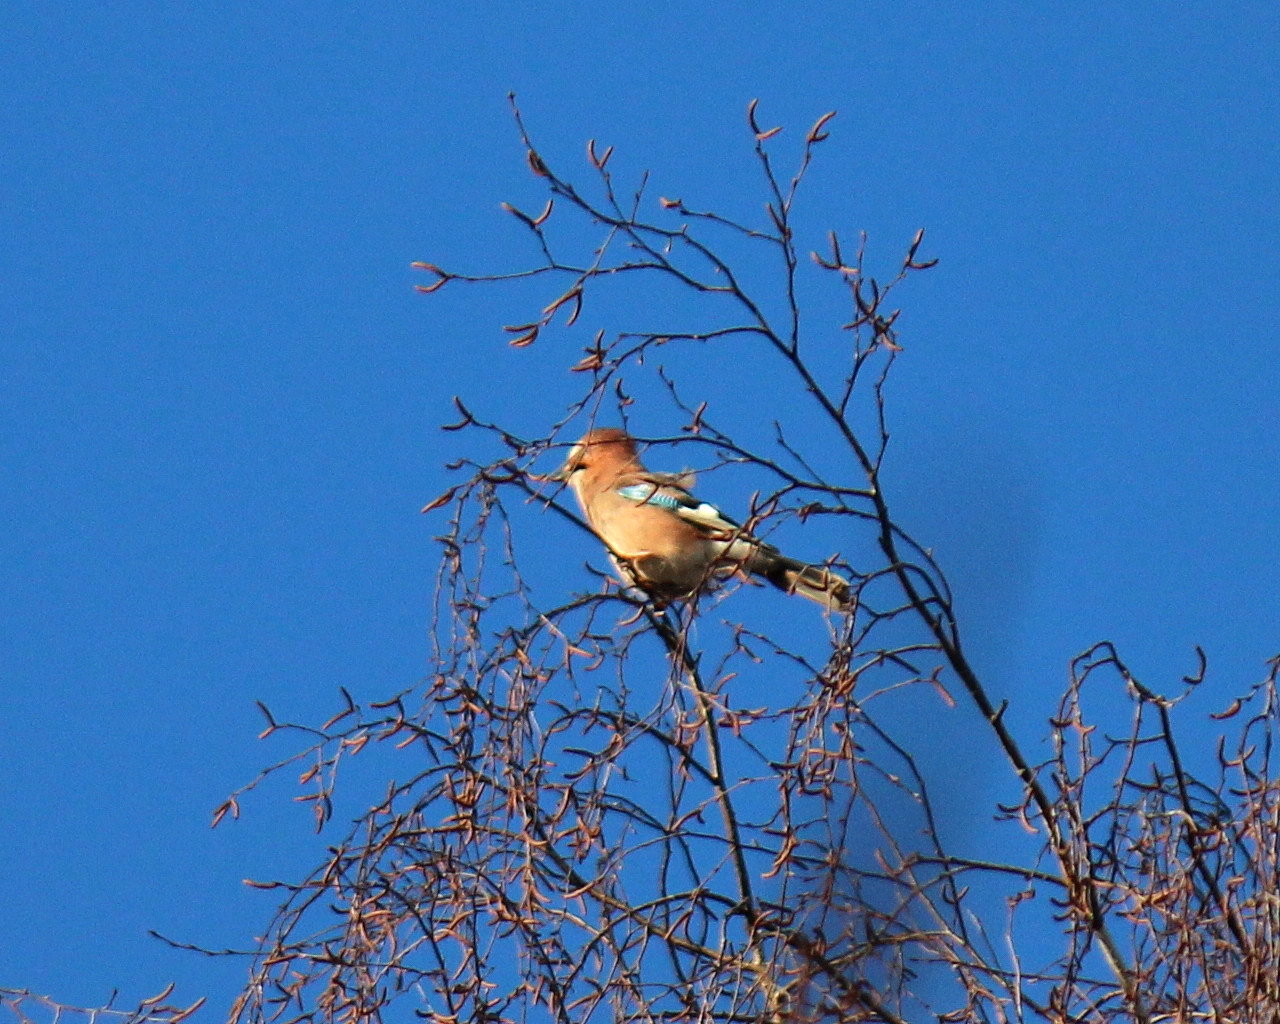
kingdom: Animalia
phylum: Chordata
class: Aves
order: Passeriformes
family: Corvidae
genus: Garrulus
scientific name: Garrulus glandarius
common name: Eurasian jay
